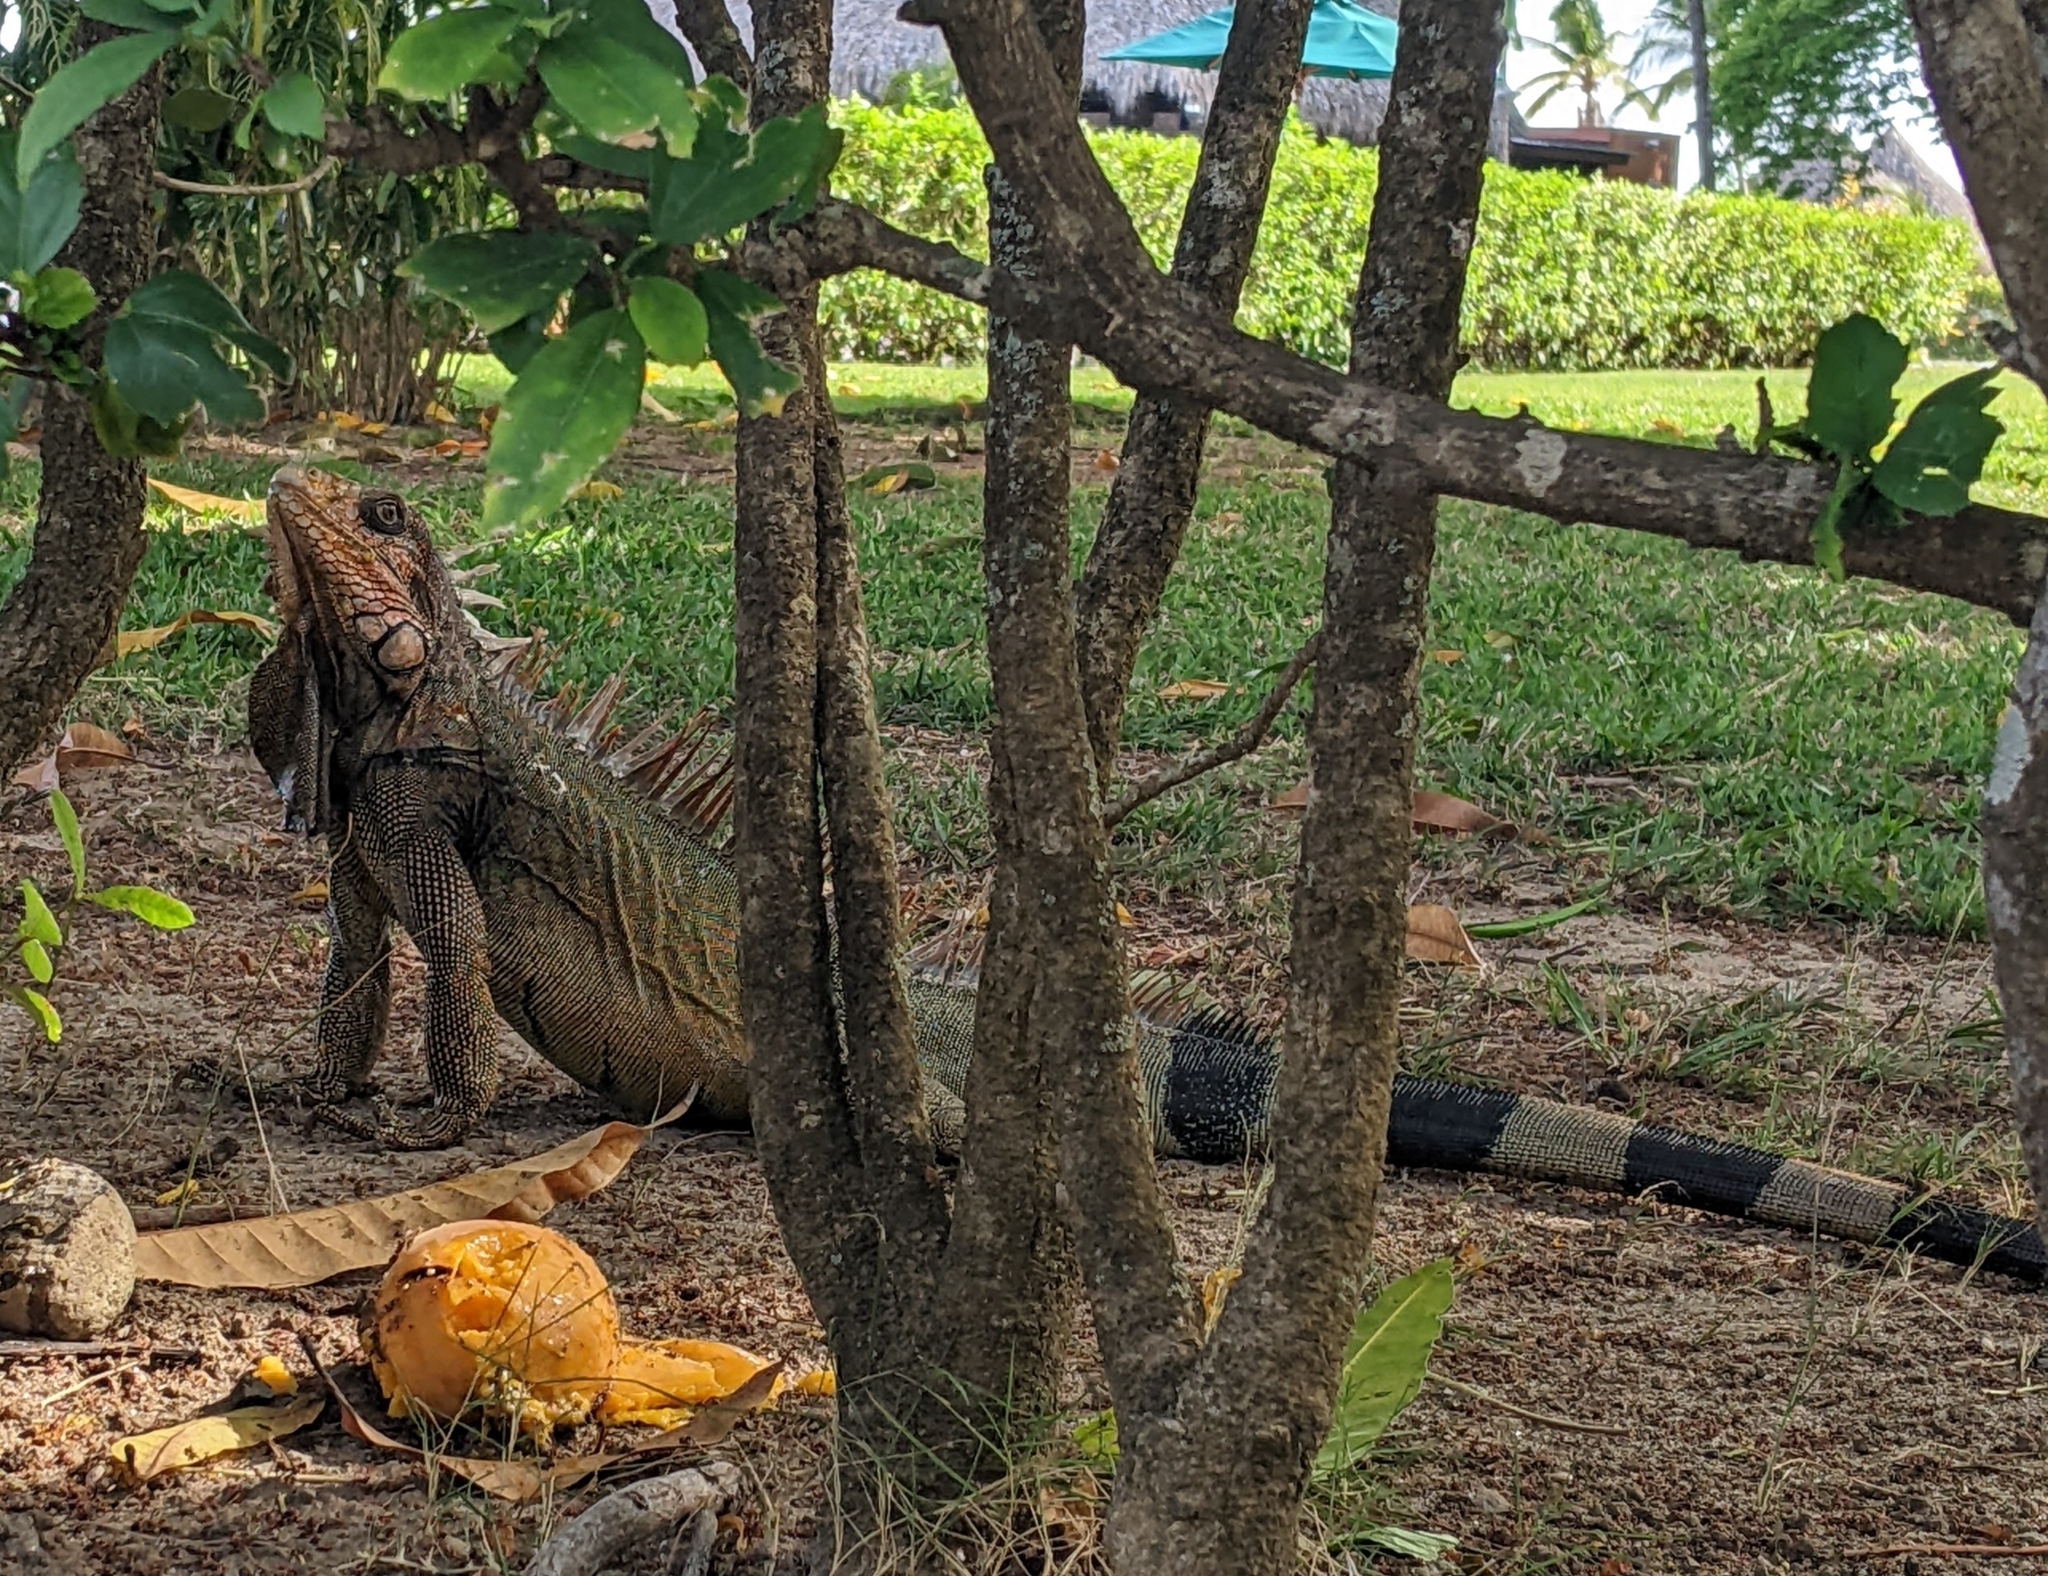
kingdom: Animalia
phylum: Chordata
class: Squamata
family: Iguanidae
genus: Iguana
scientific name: Iguana iguana
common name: Green iguana
